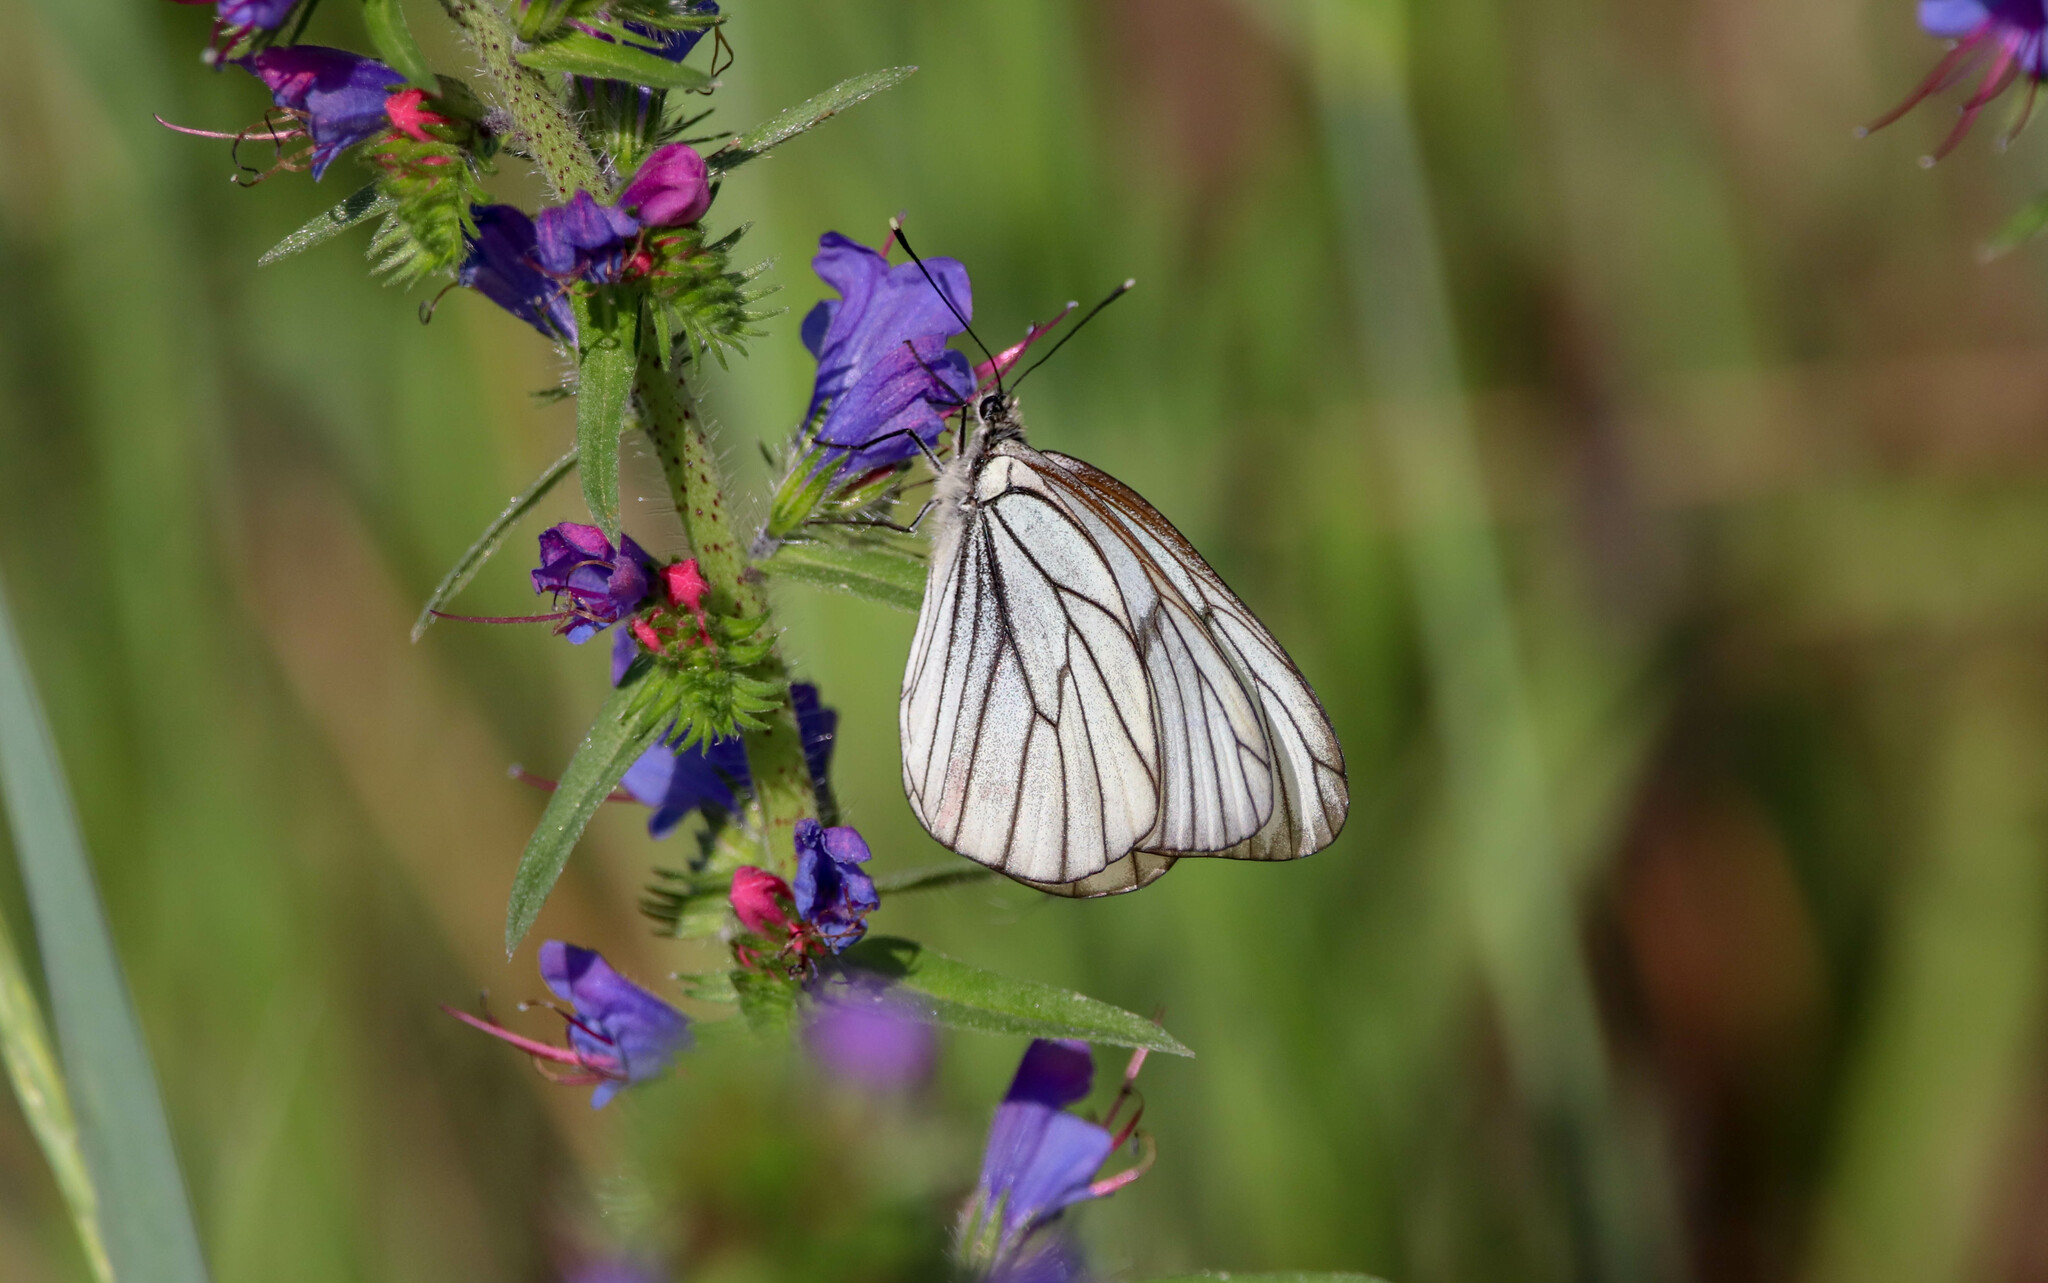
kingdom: Animalia
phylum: Arthropoda
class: Insecta
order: Lepidoptera
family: Pieridae
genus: Aporia
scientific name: Aporia crataegi
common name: Black-veined white
